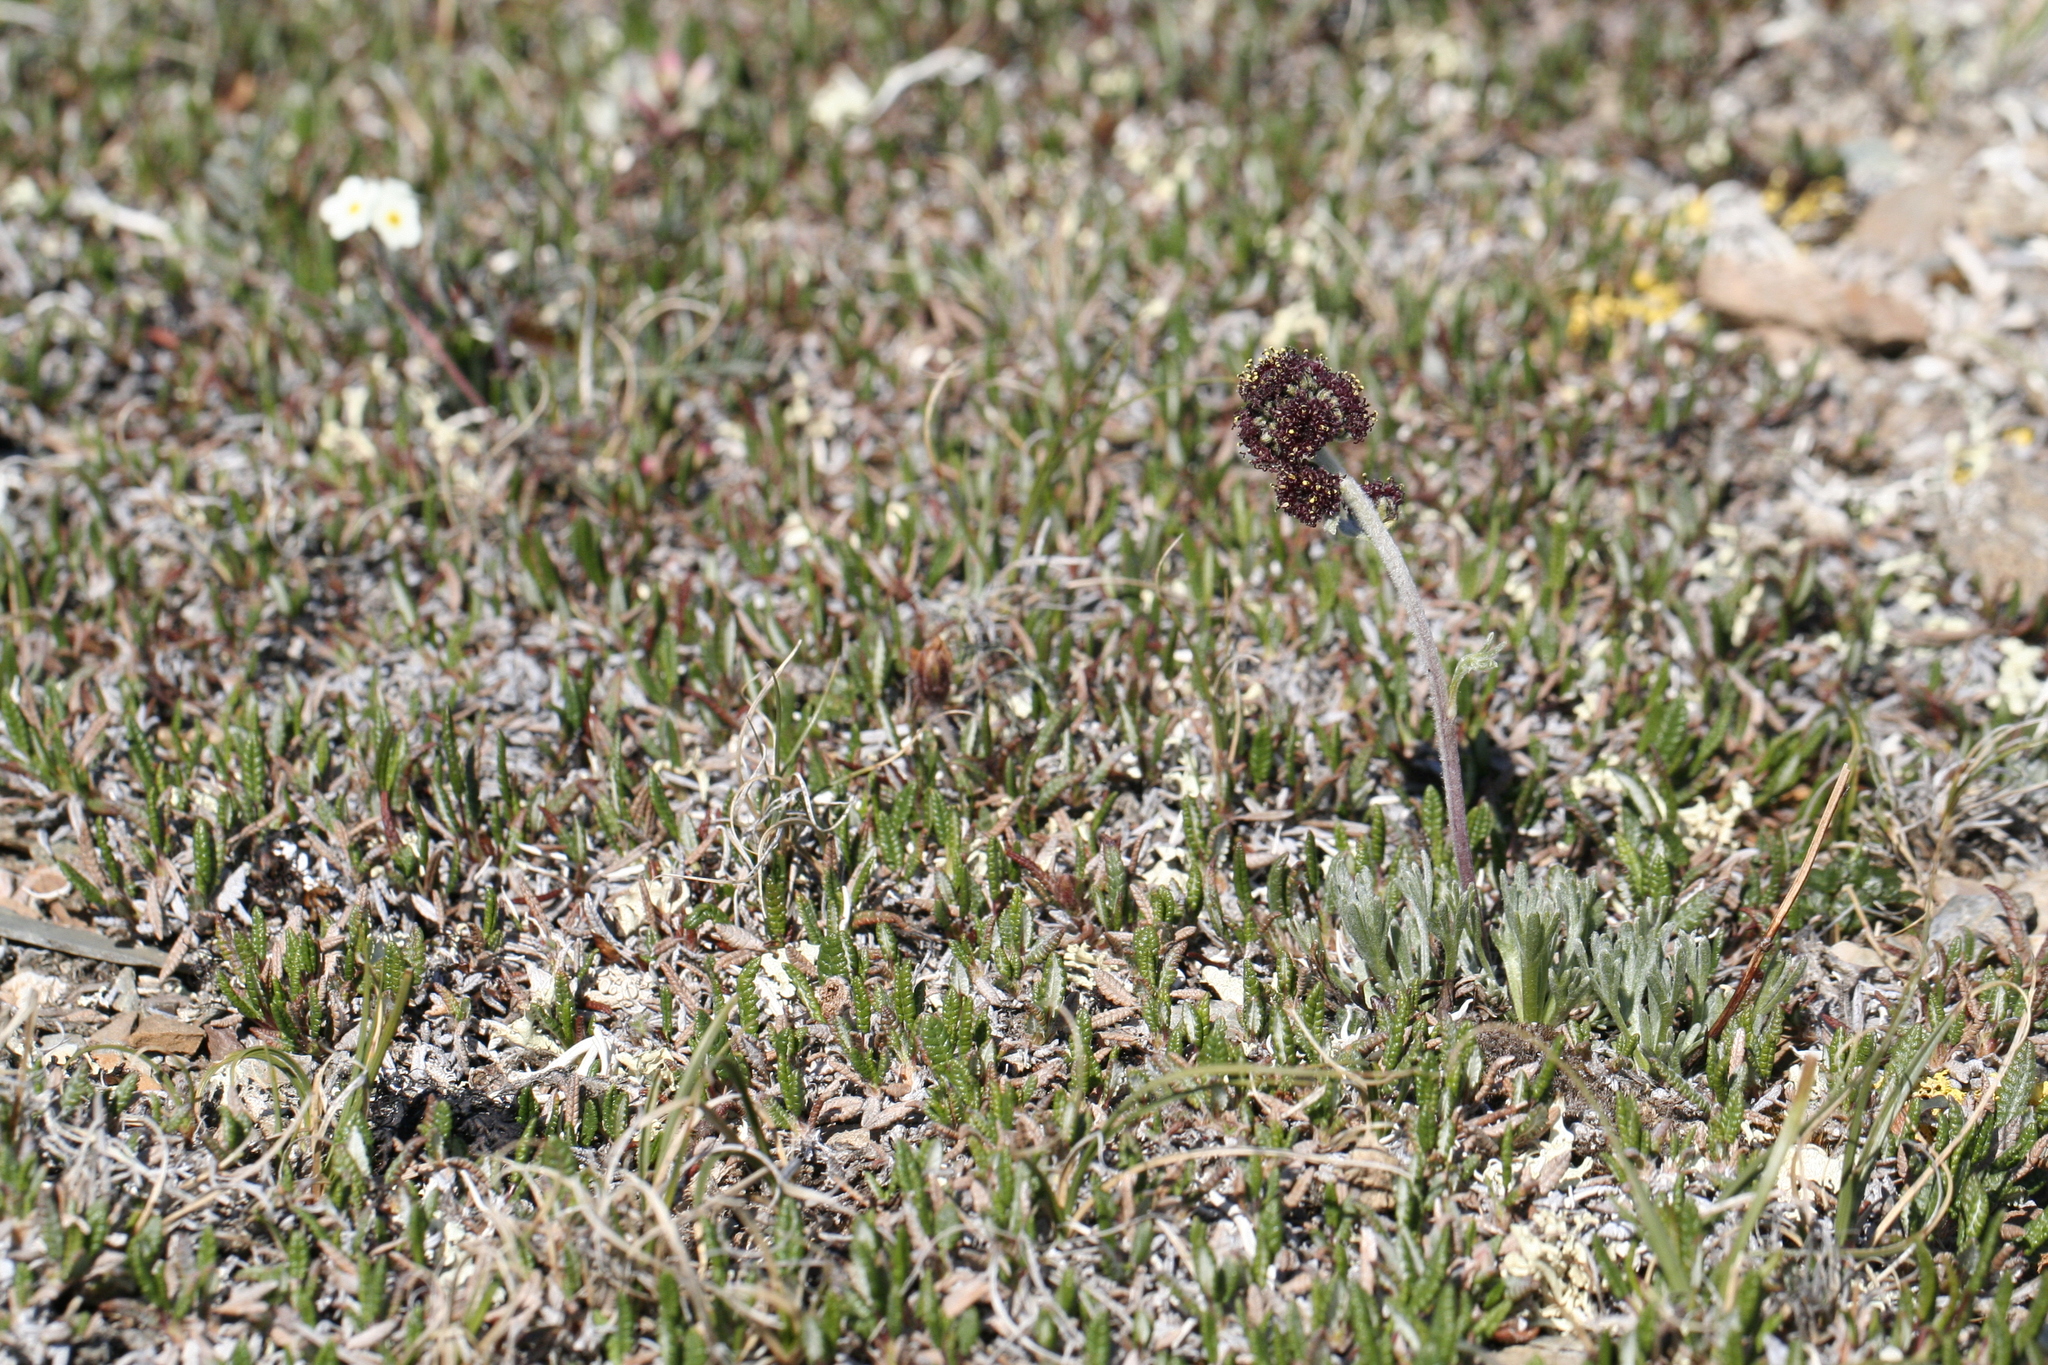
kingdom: Plantae
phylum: Tracheophyta
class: Magnoliopsida
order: Asterales
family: Asteraceae
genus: Artemisia
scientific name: Artemisia globularia
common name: Purple wormwood
